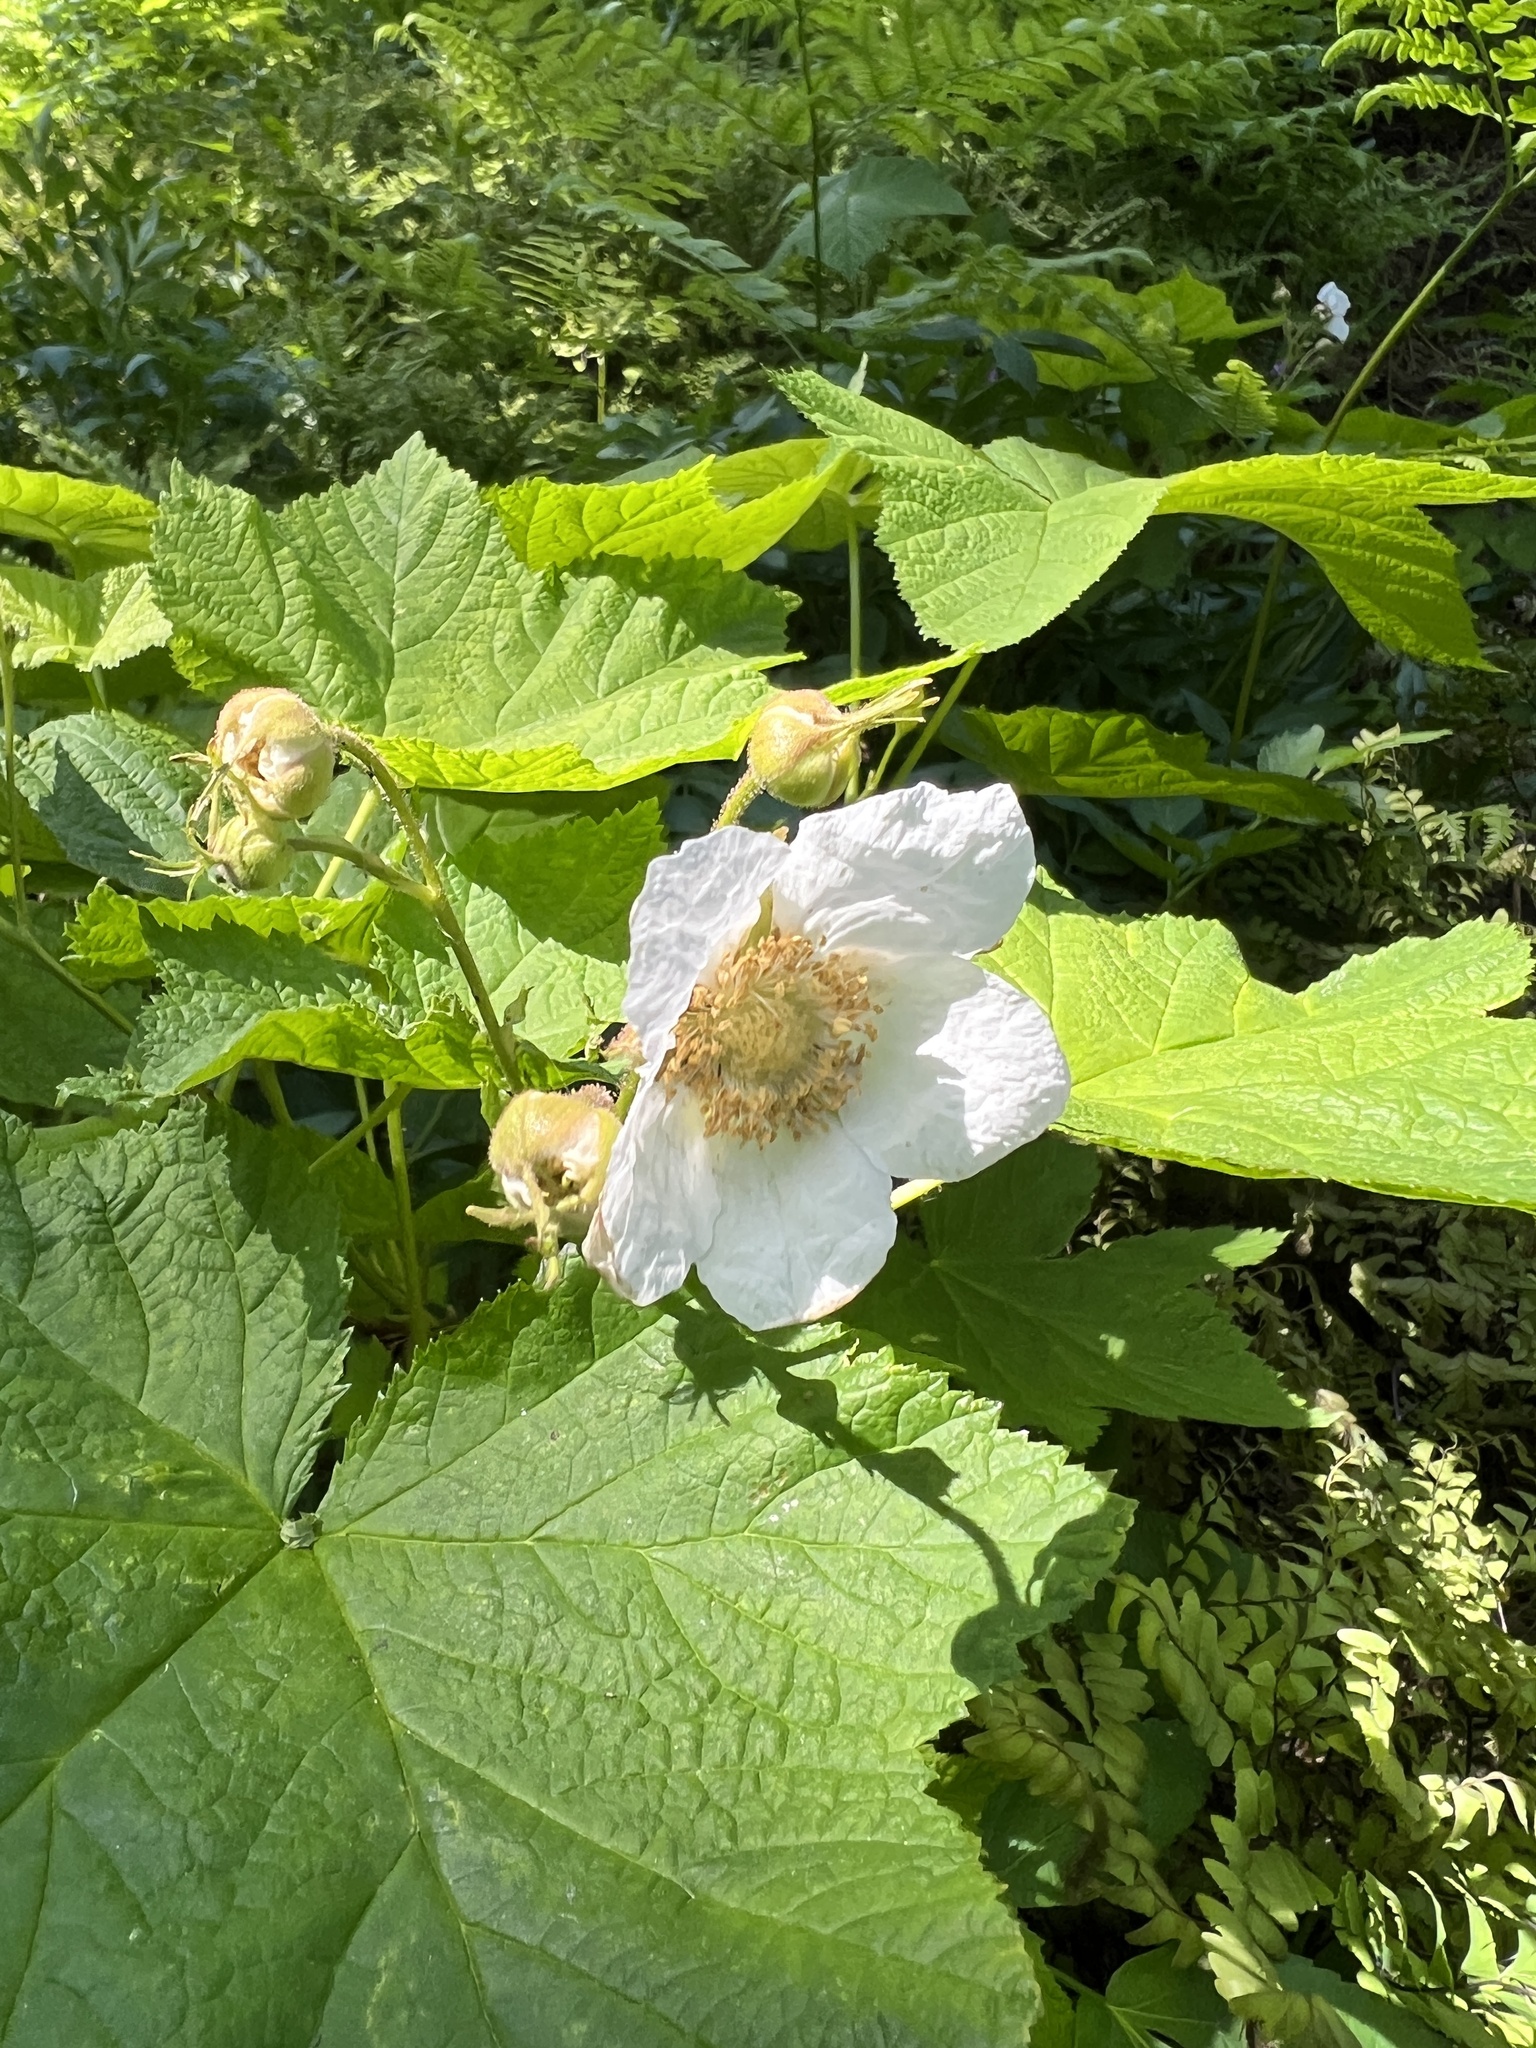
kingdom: Plantae
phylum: Tracheophyta
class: Magnoliopsida
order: Rosales
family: Rosaceae
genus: Rubus
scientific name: Rubus parviflorus
